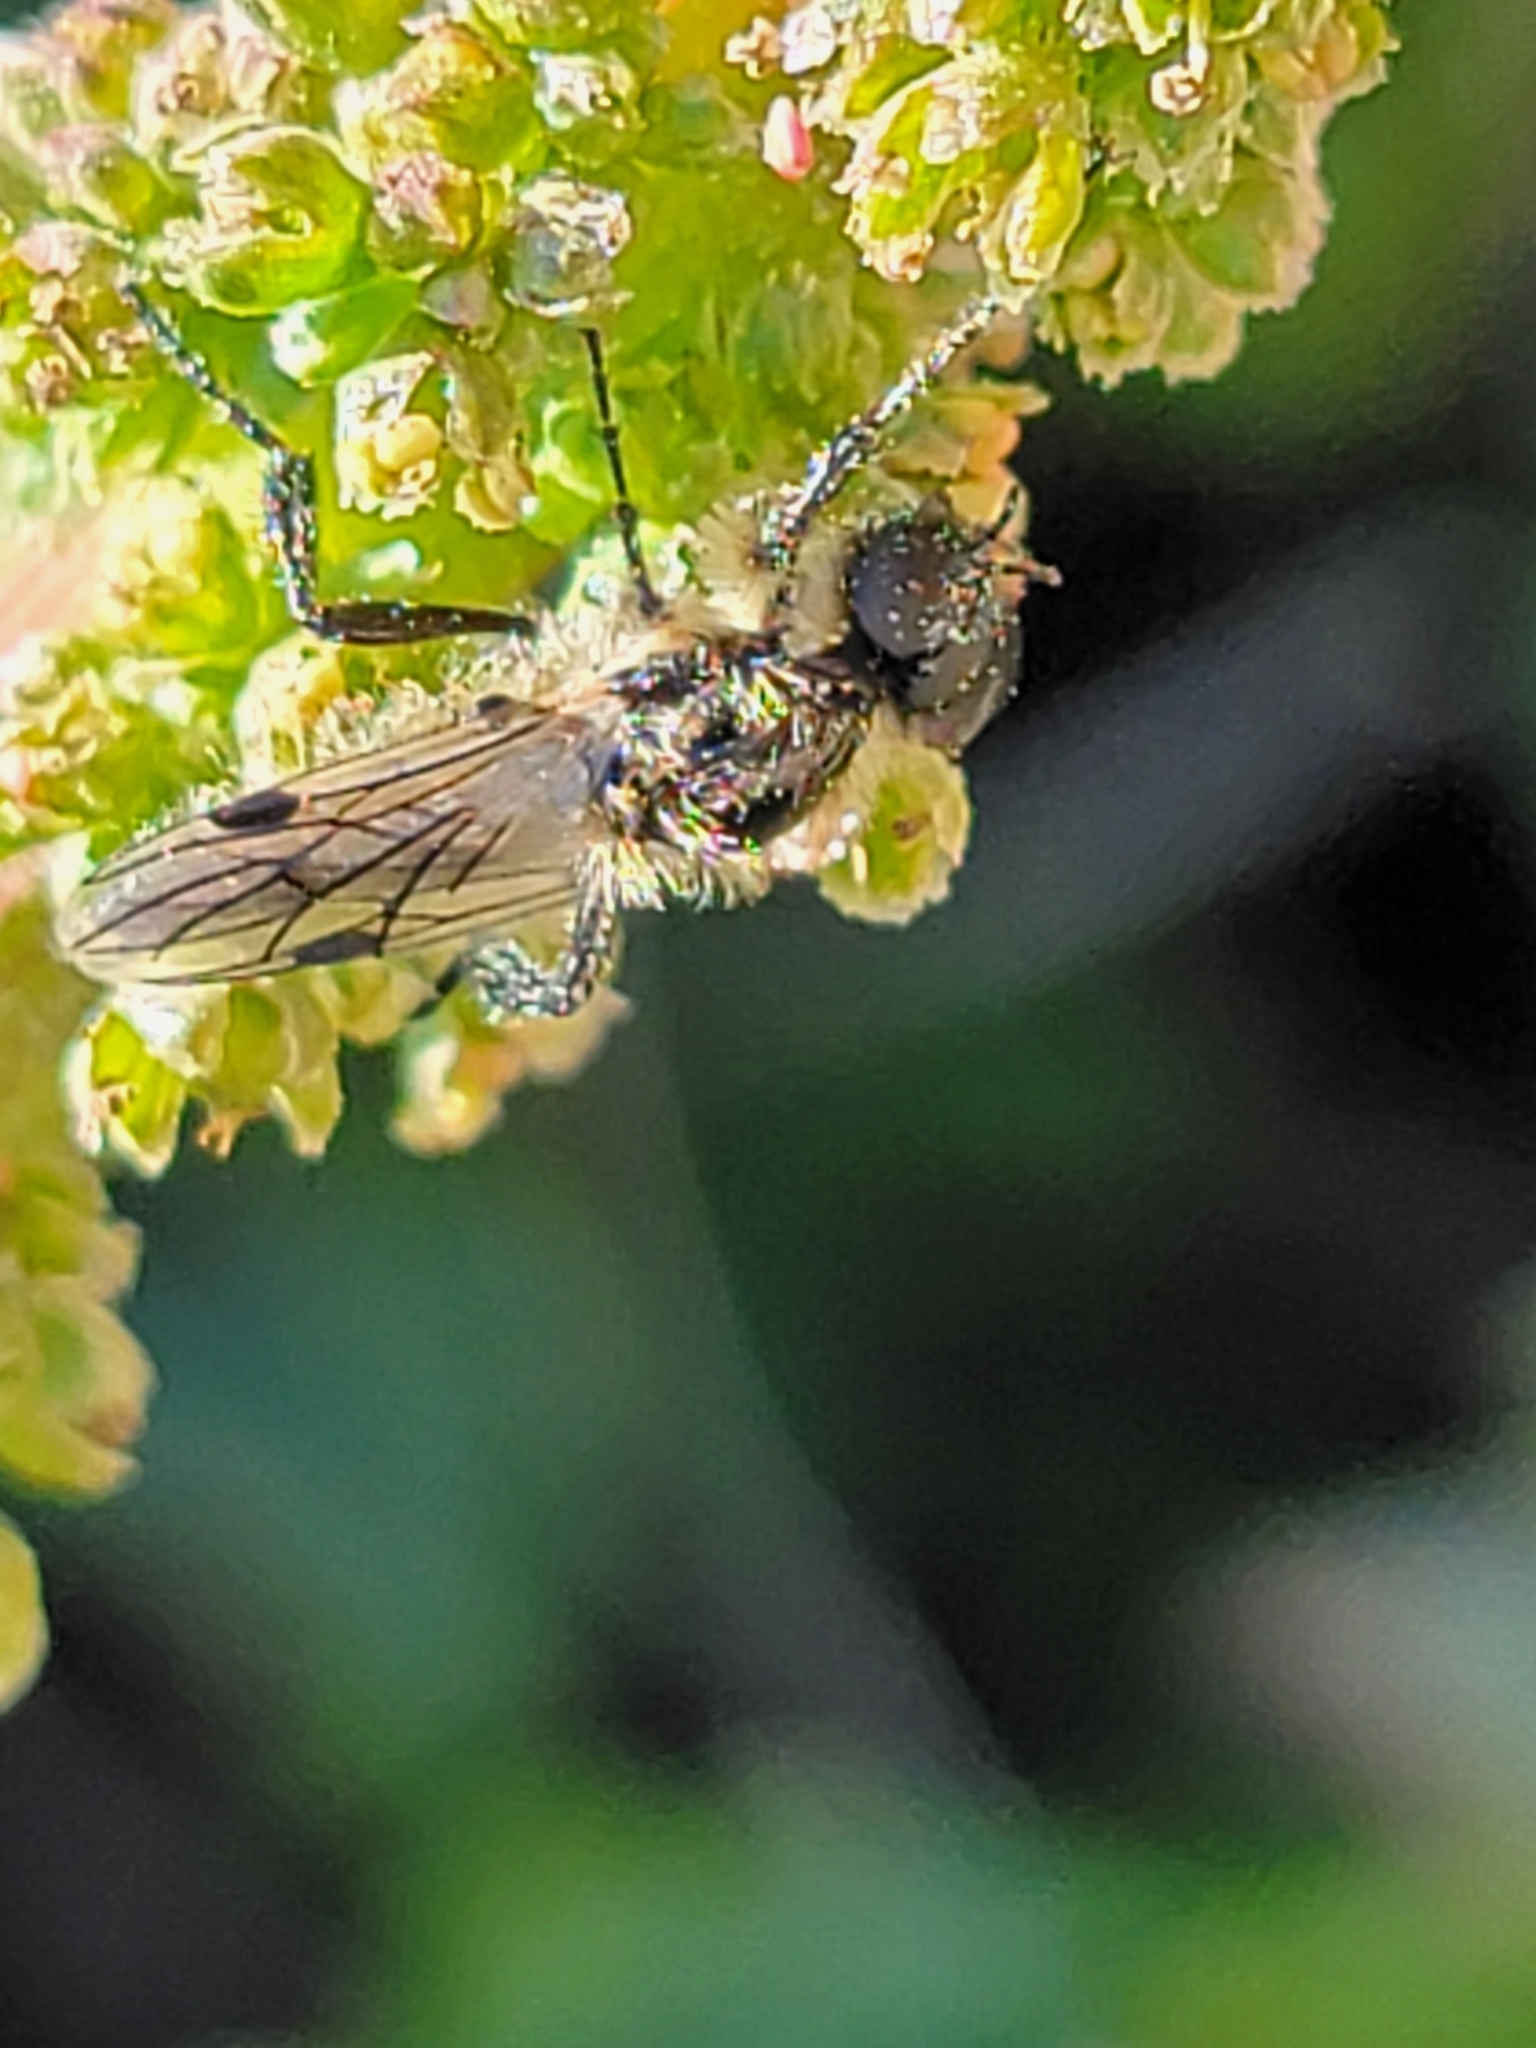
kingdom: Animalia
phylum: Arthropoda
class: Insecta
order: Diptera
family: Bibionidae
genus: Bibio
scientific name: Bibio albipennis
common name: White-winged march fly
